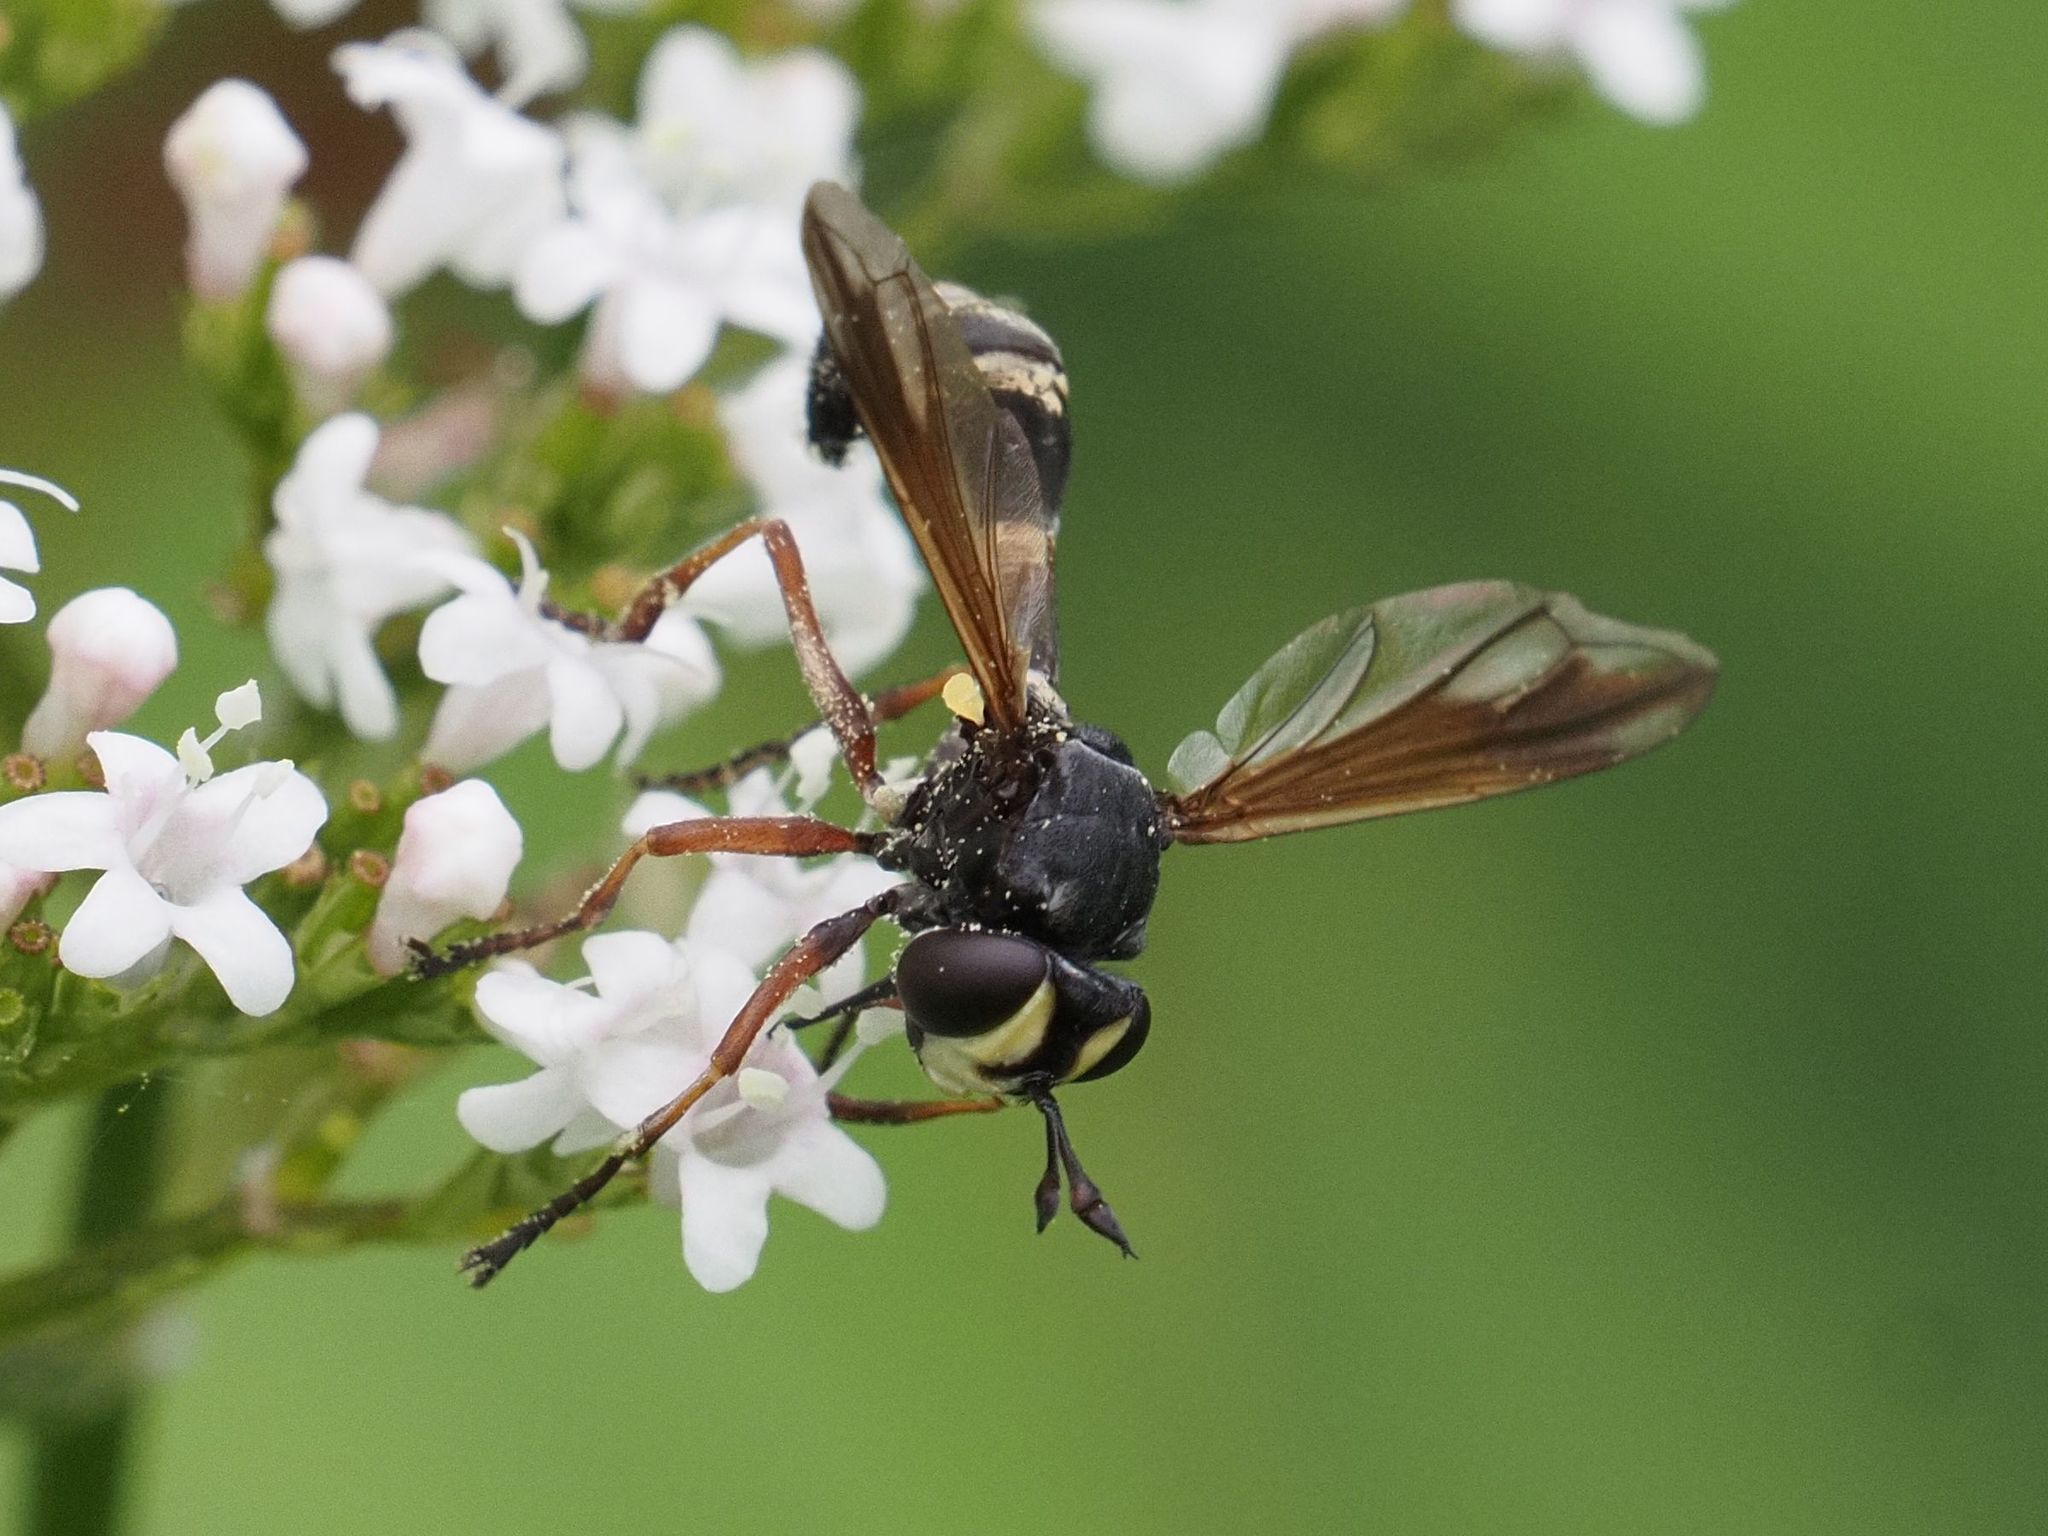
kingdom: Animalia
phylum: Arthropoda
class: Insecta
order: Diptera
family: Conopidae
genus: Physocephala
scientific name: Physocephala rufipes
